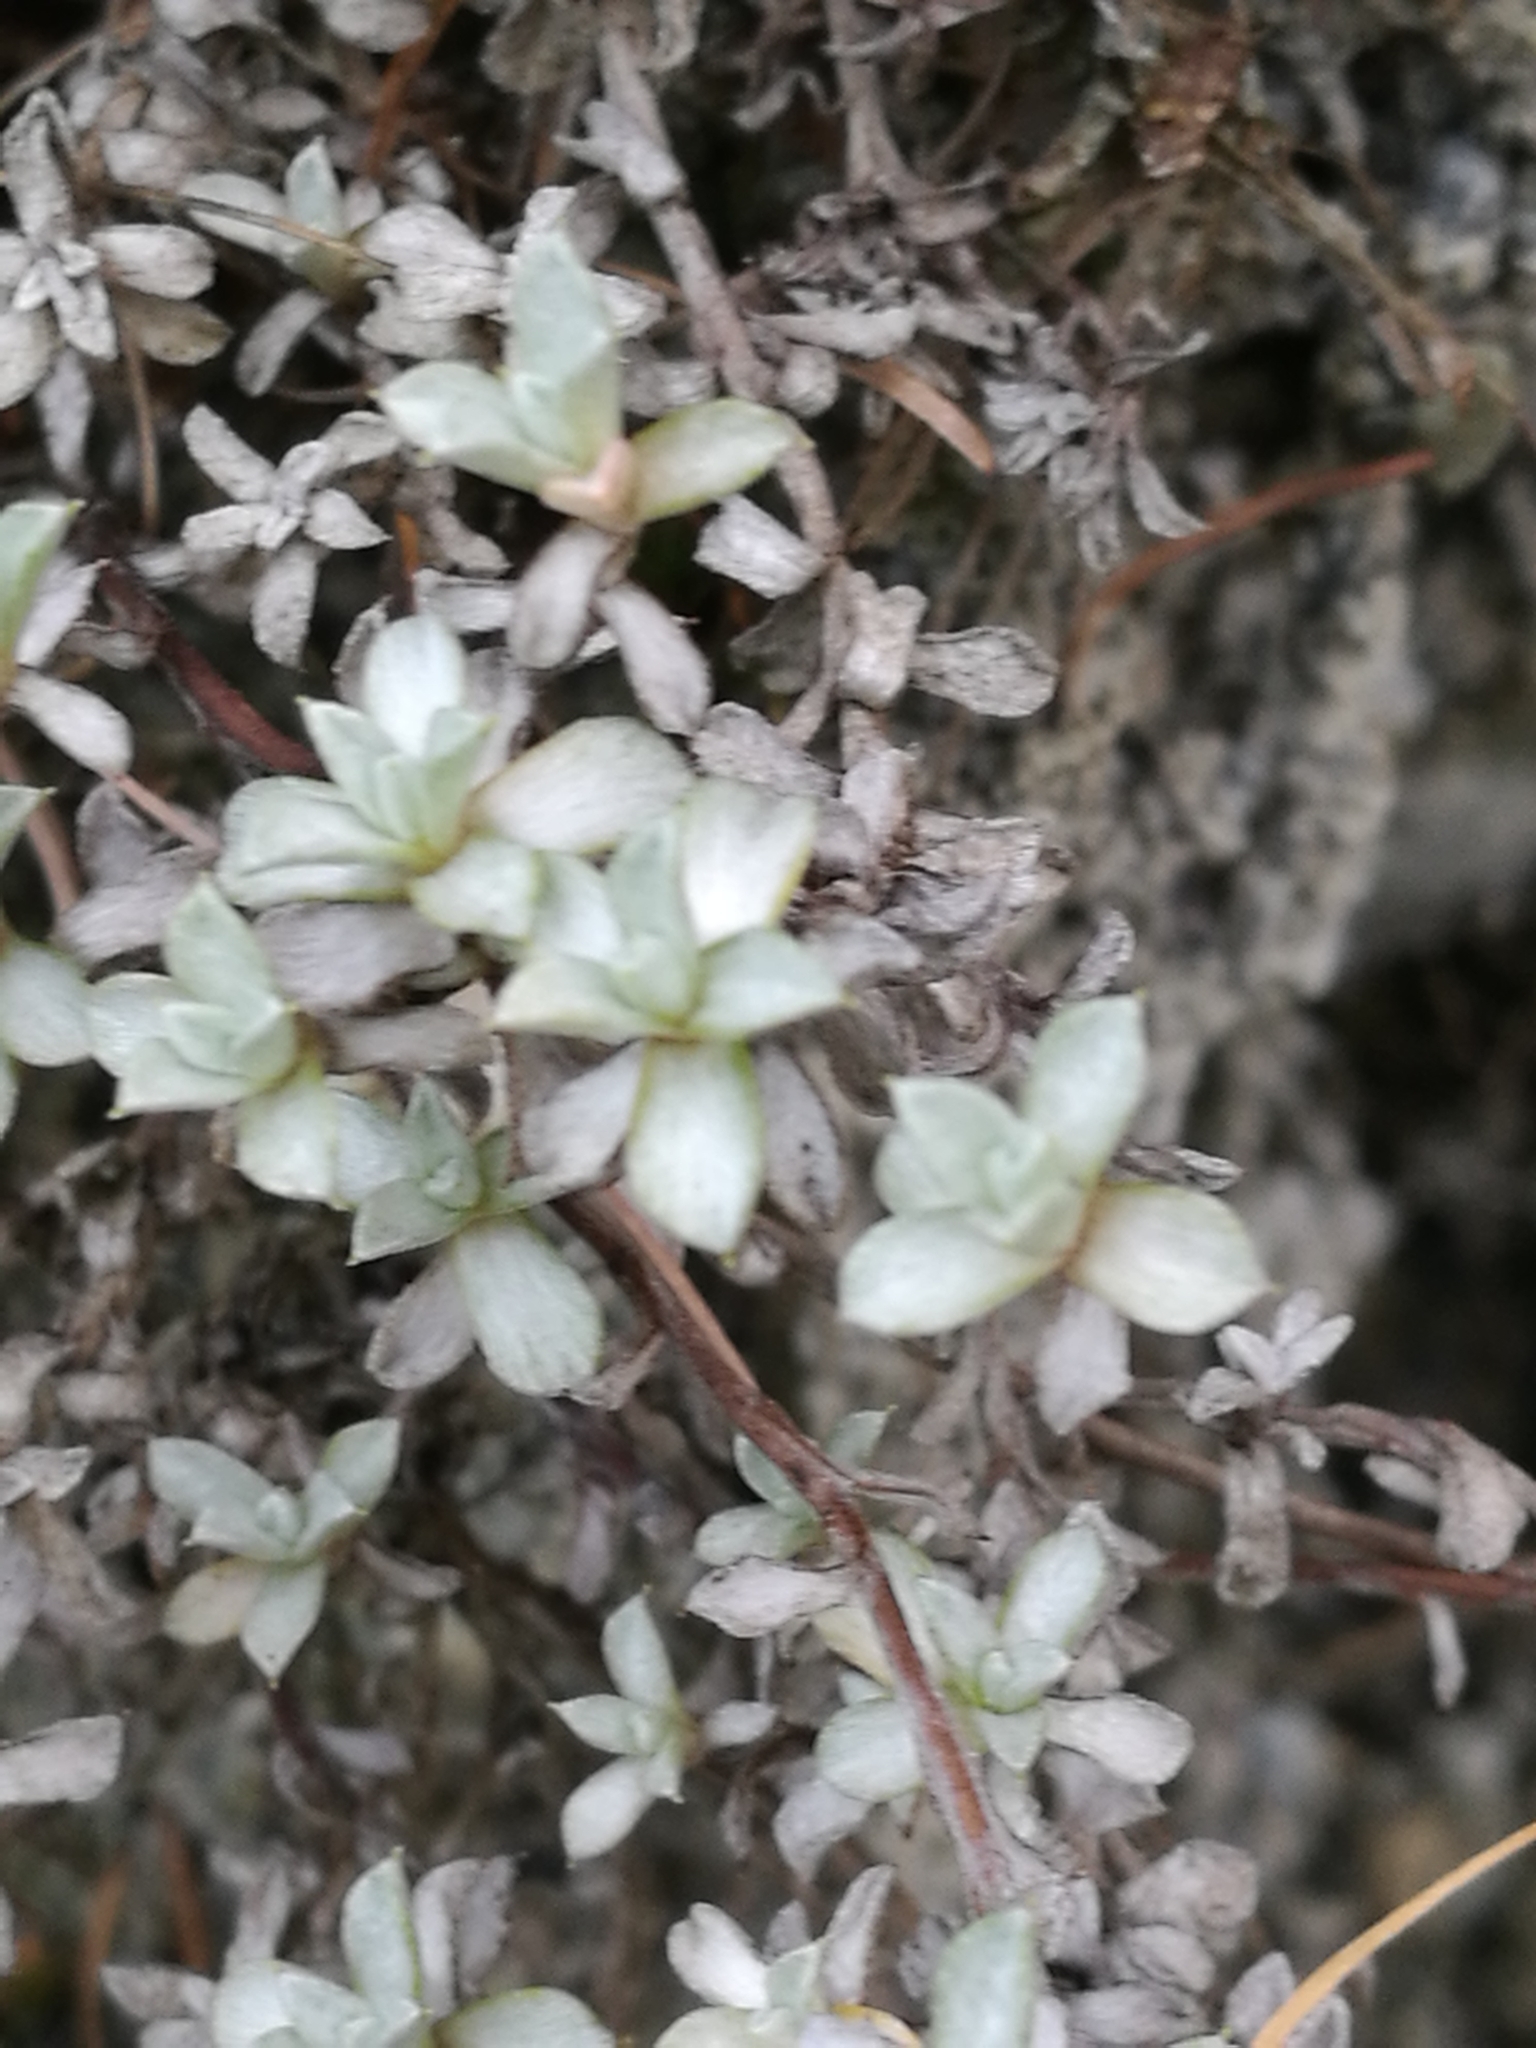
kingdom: Plantae
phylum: Tracheophyta
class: Magnoliopsida
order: Asterales
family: Asteraceae
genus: Anaphalioides
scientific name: Anaphalioides bellidioides
